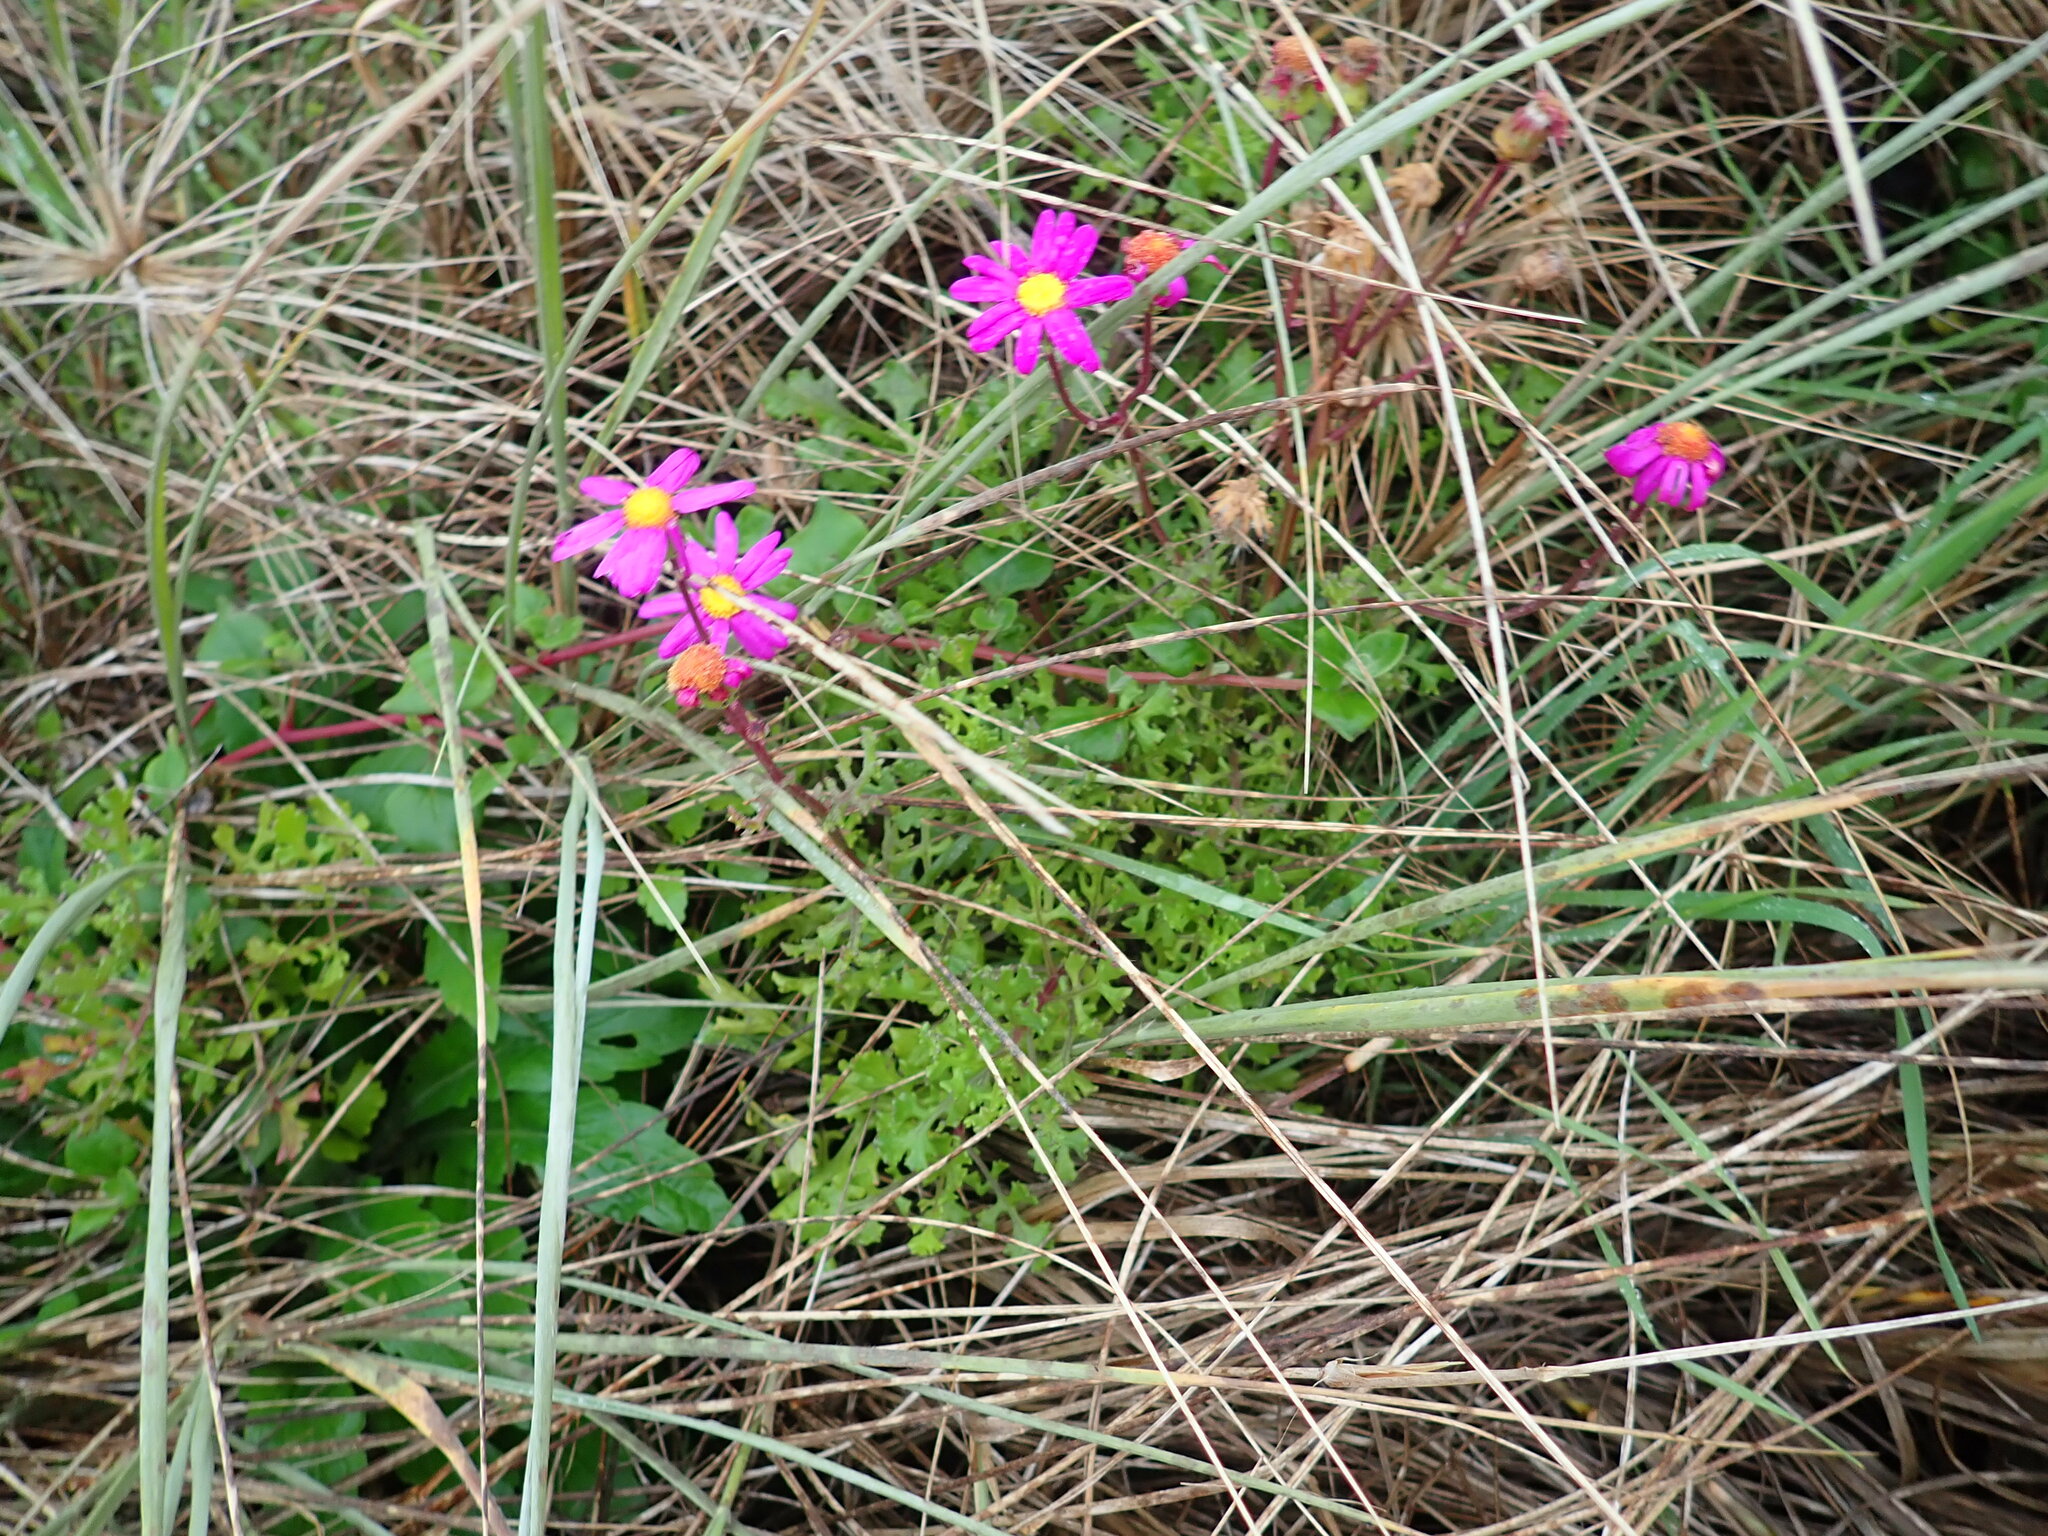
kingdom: Plantae
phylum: Tracheophyta
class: Magnoliopsida
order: Asterales
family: Asteraceae
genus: Senecio
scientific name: Senecio elegans
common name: Purple groundsel
